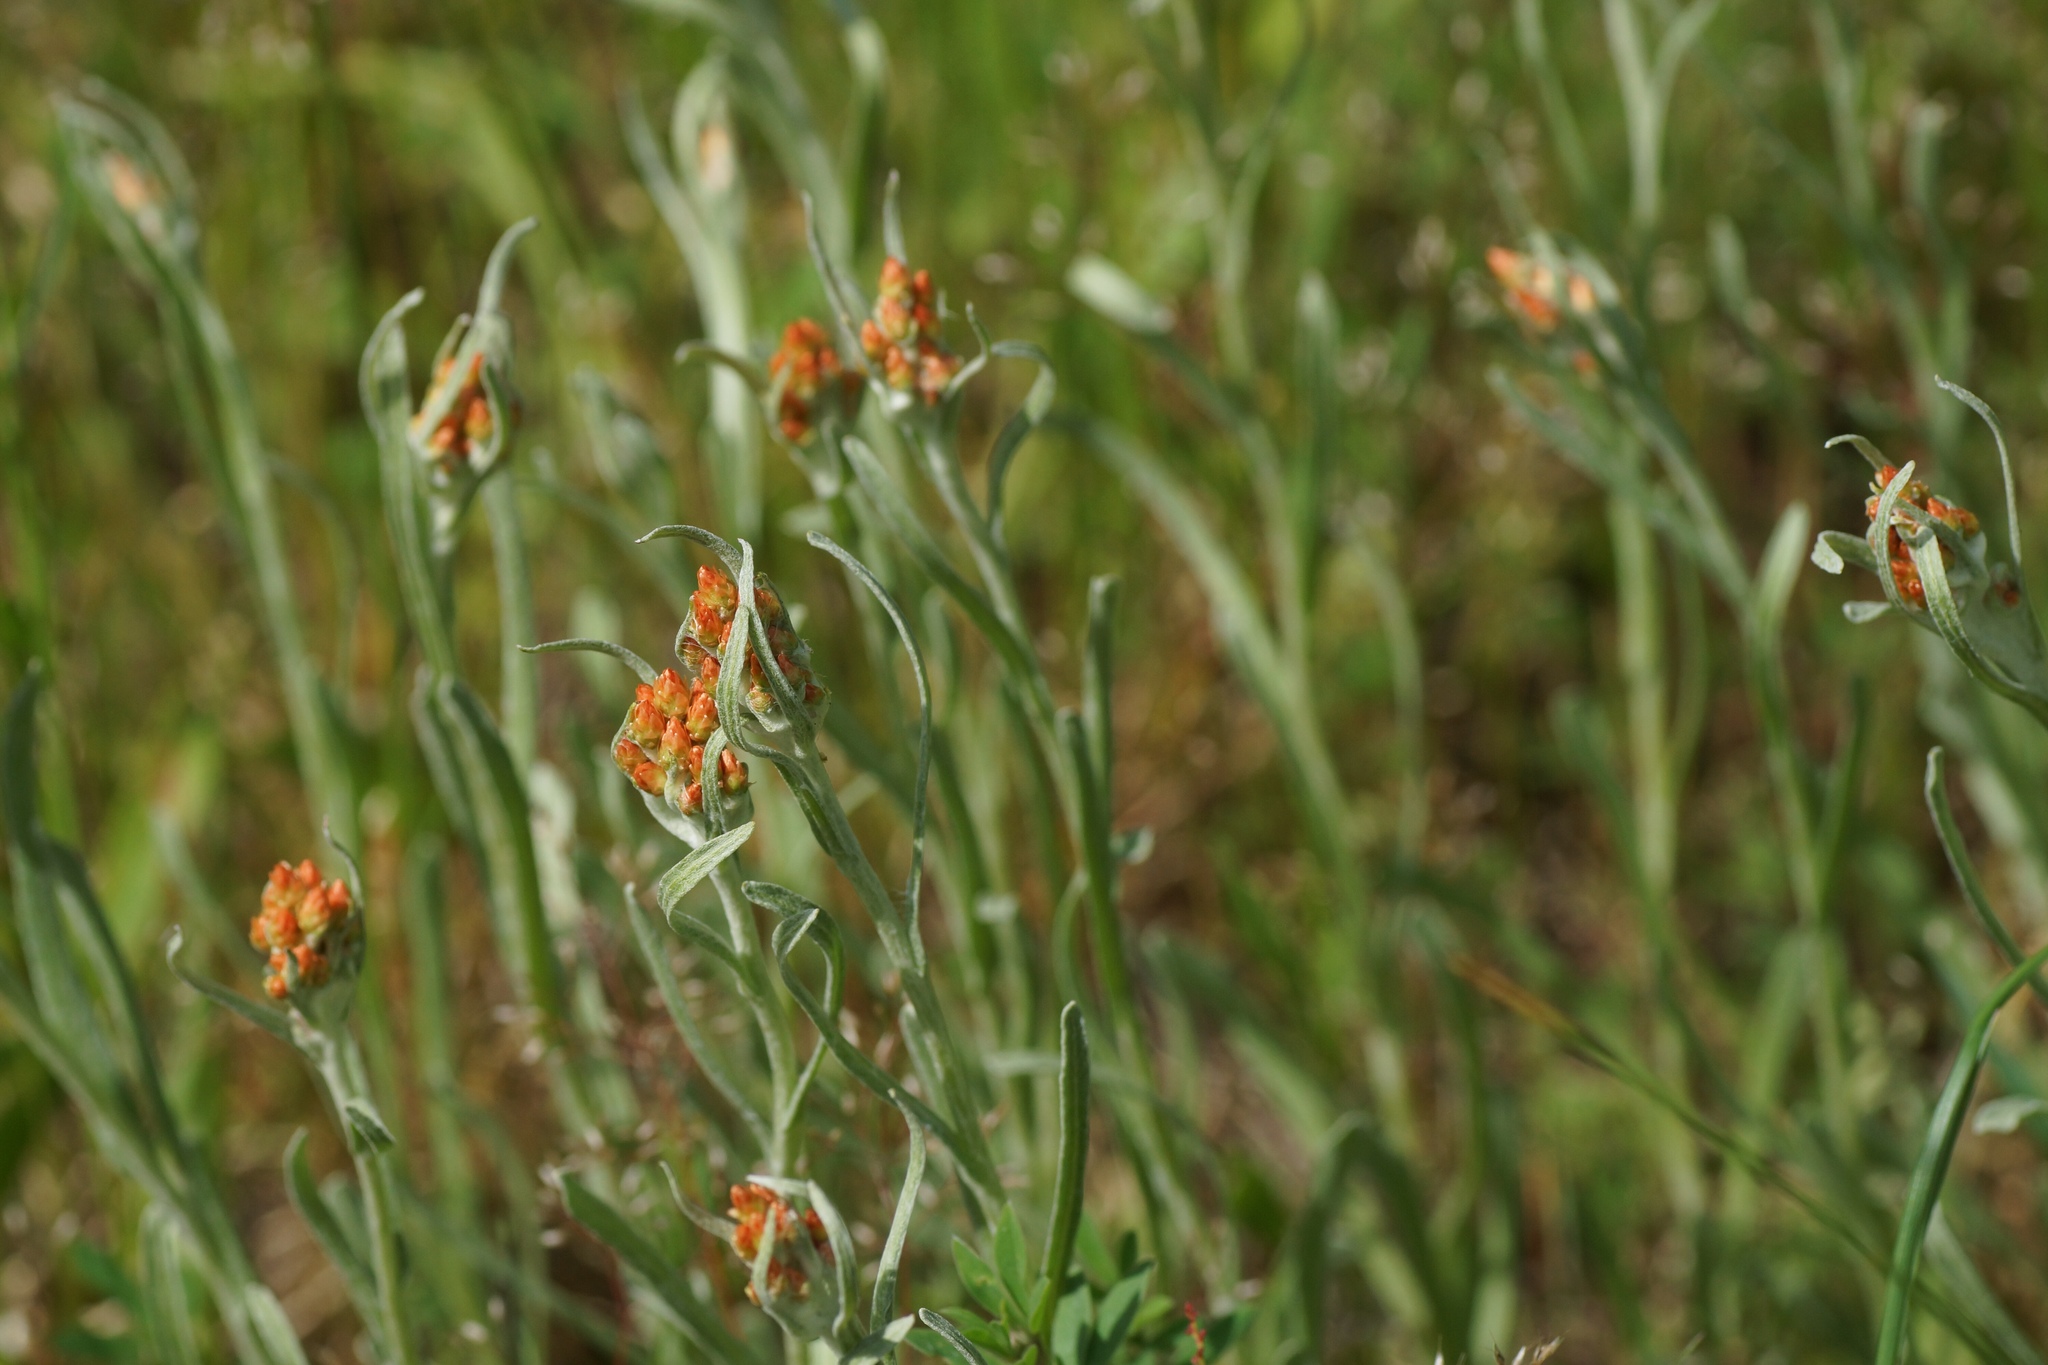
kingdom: Plantae
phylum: Tracheophyta
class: Magnoliopsida
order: Asterales
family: Asteraceae
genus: Helichrysum
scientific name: Helichrysum arenarium
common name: Strawflower
